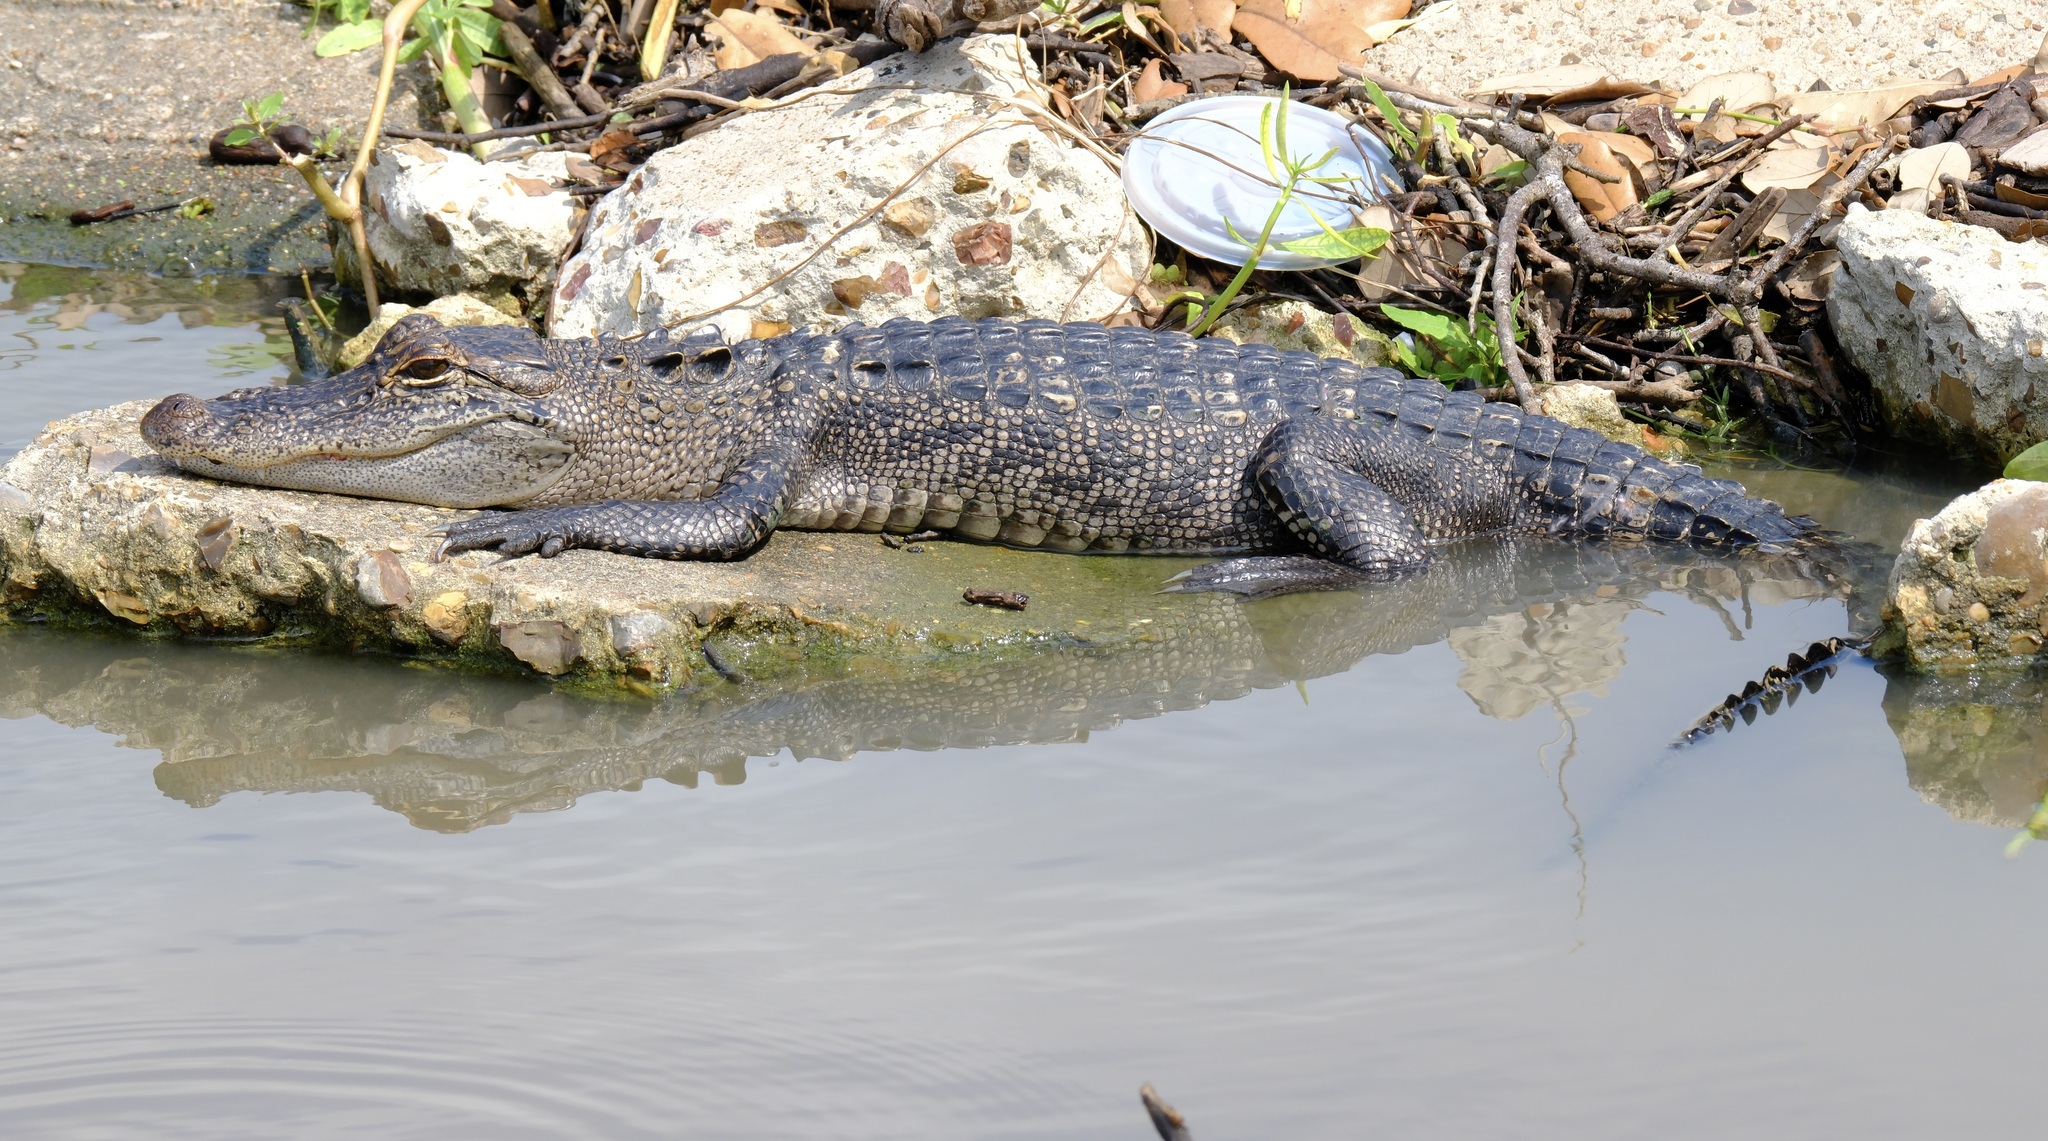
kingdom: Animalia
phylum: Chordata
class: Crocodylia
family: Alligatoridae
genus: Alligator
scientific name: Alligator mississippiensis
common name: American alligator
